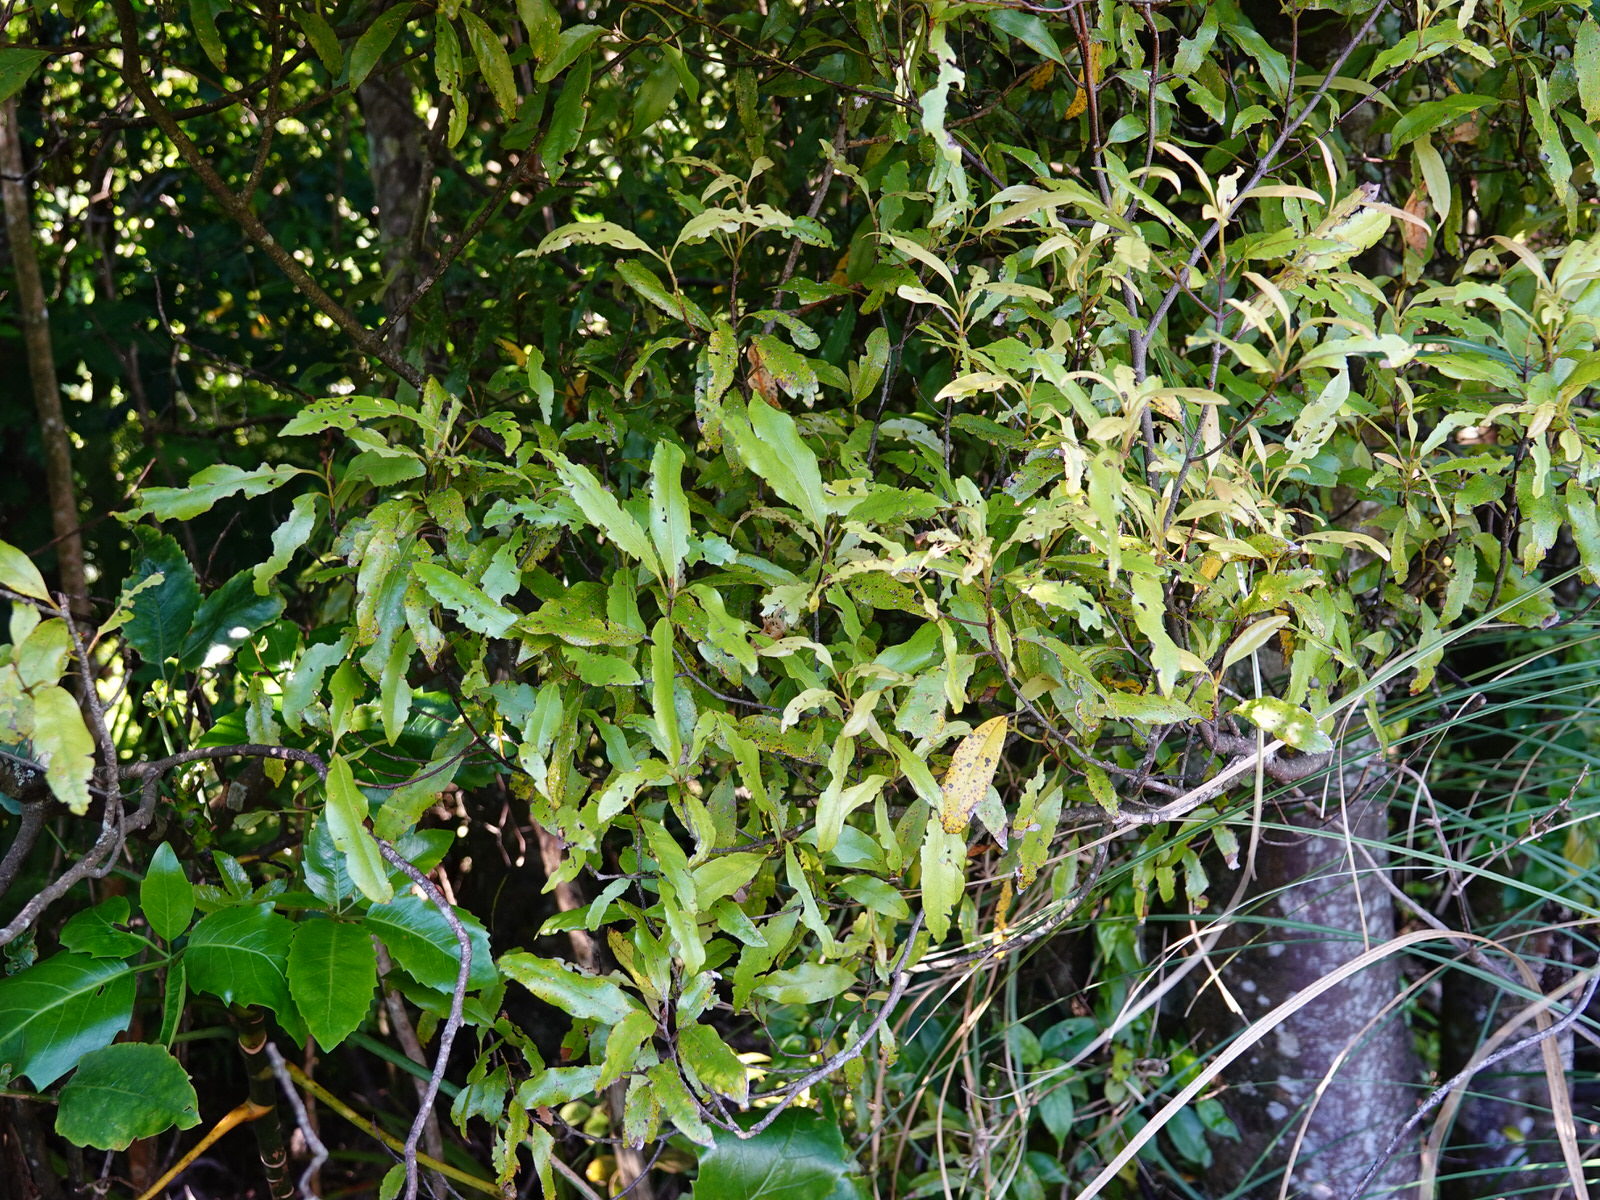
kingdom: Plantae
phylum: Tracheophyta
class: Magnoliopsida
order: Laurales
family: Lauraceae
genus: Beilschmiedia
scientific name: Beilschmiedia tawa
